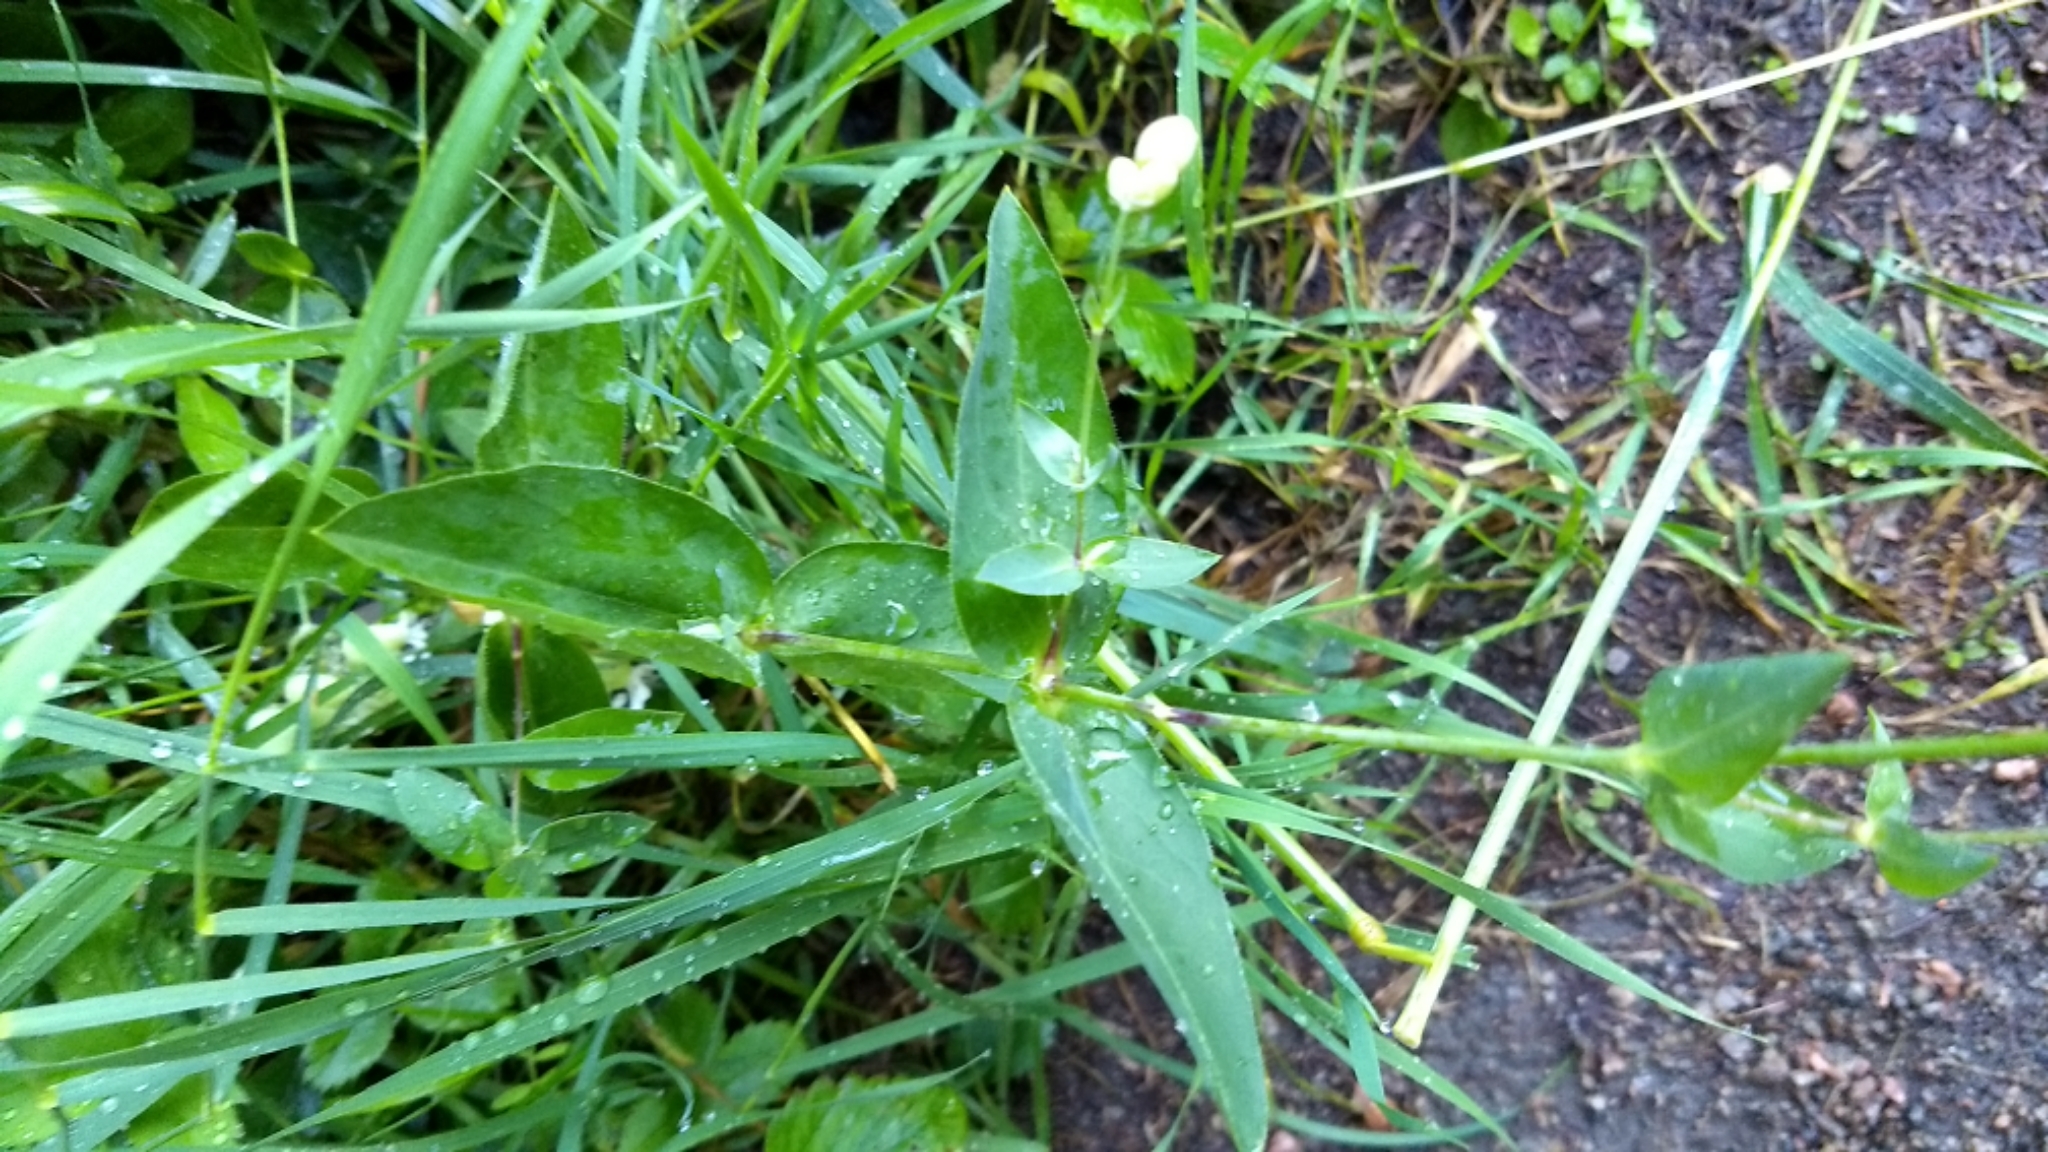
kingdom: Plantae
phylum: Tracheophyta
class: Magnoliopsida
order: Caryophyllales
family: Caryophyllaceae
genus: Silene
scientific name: Silene vulgaris
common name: Bladder campion
